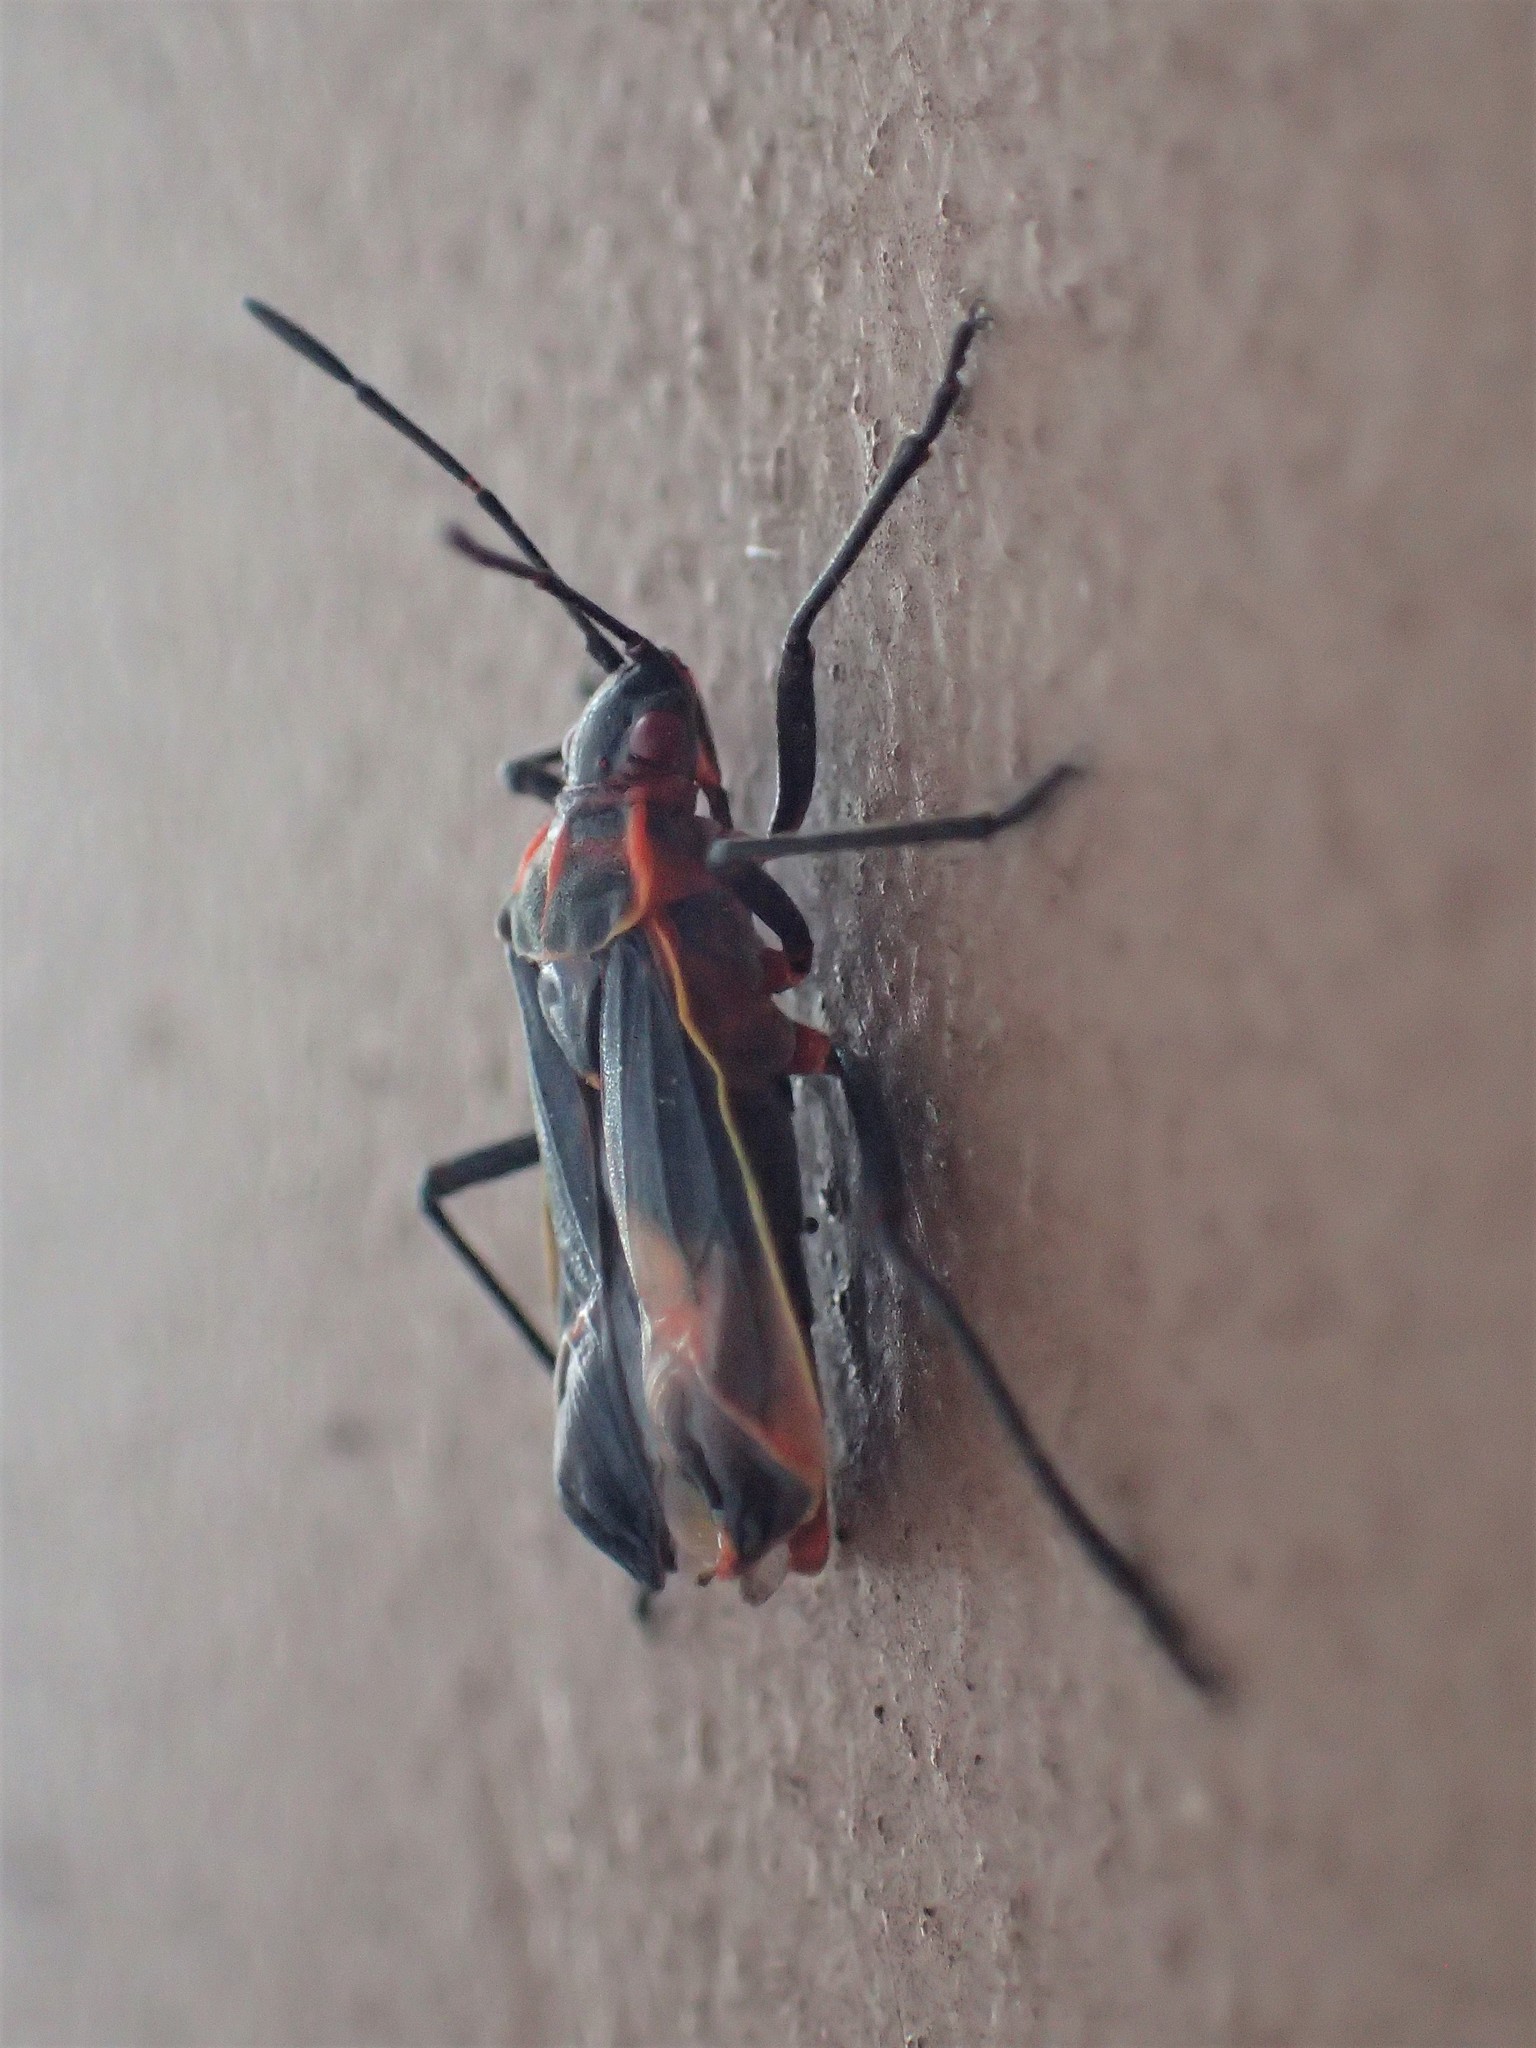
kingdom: Animalia
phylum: Arthropoda
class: Insecta
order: Hemiptera
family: Rhopalidae
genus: Boisea
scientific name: Boisea trivittata
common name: Boxelder bug
